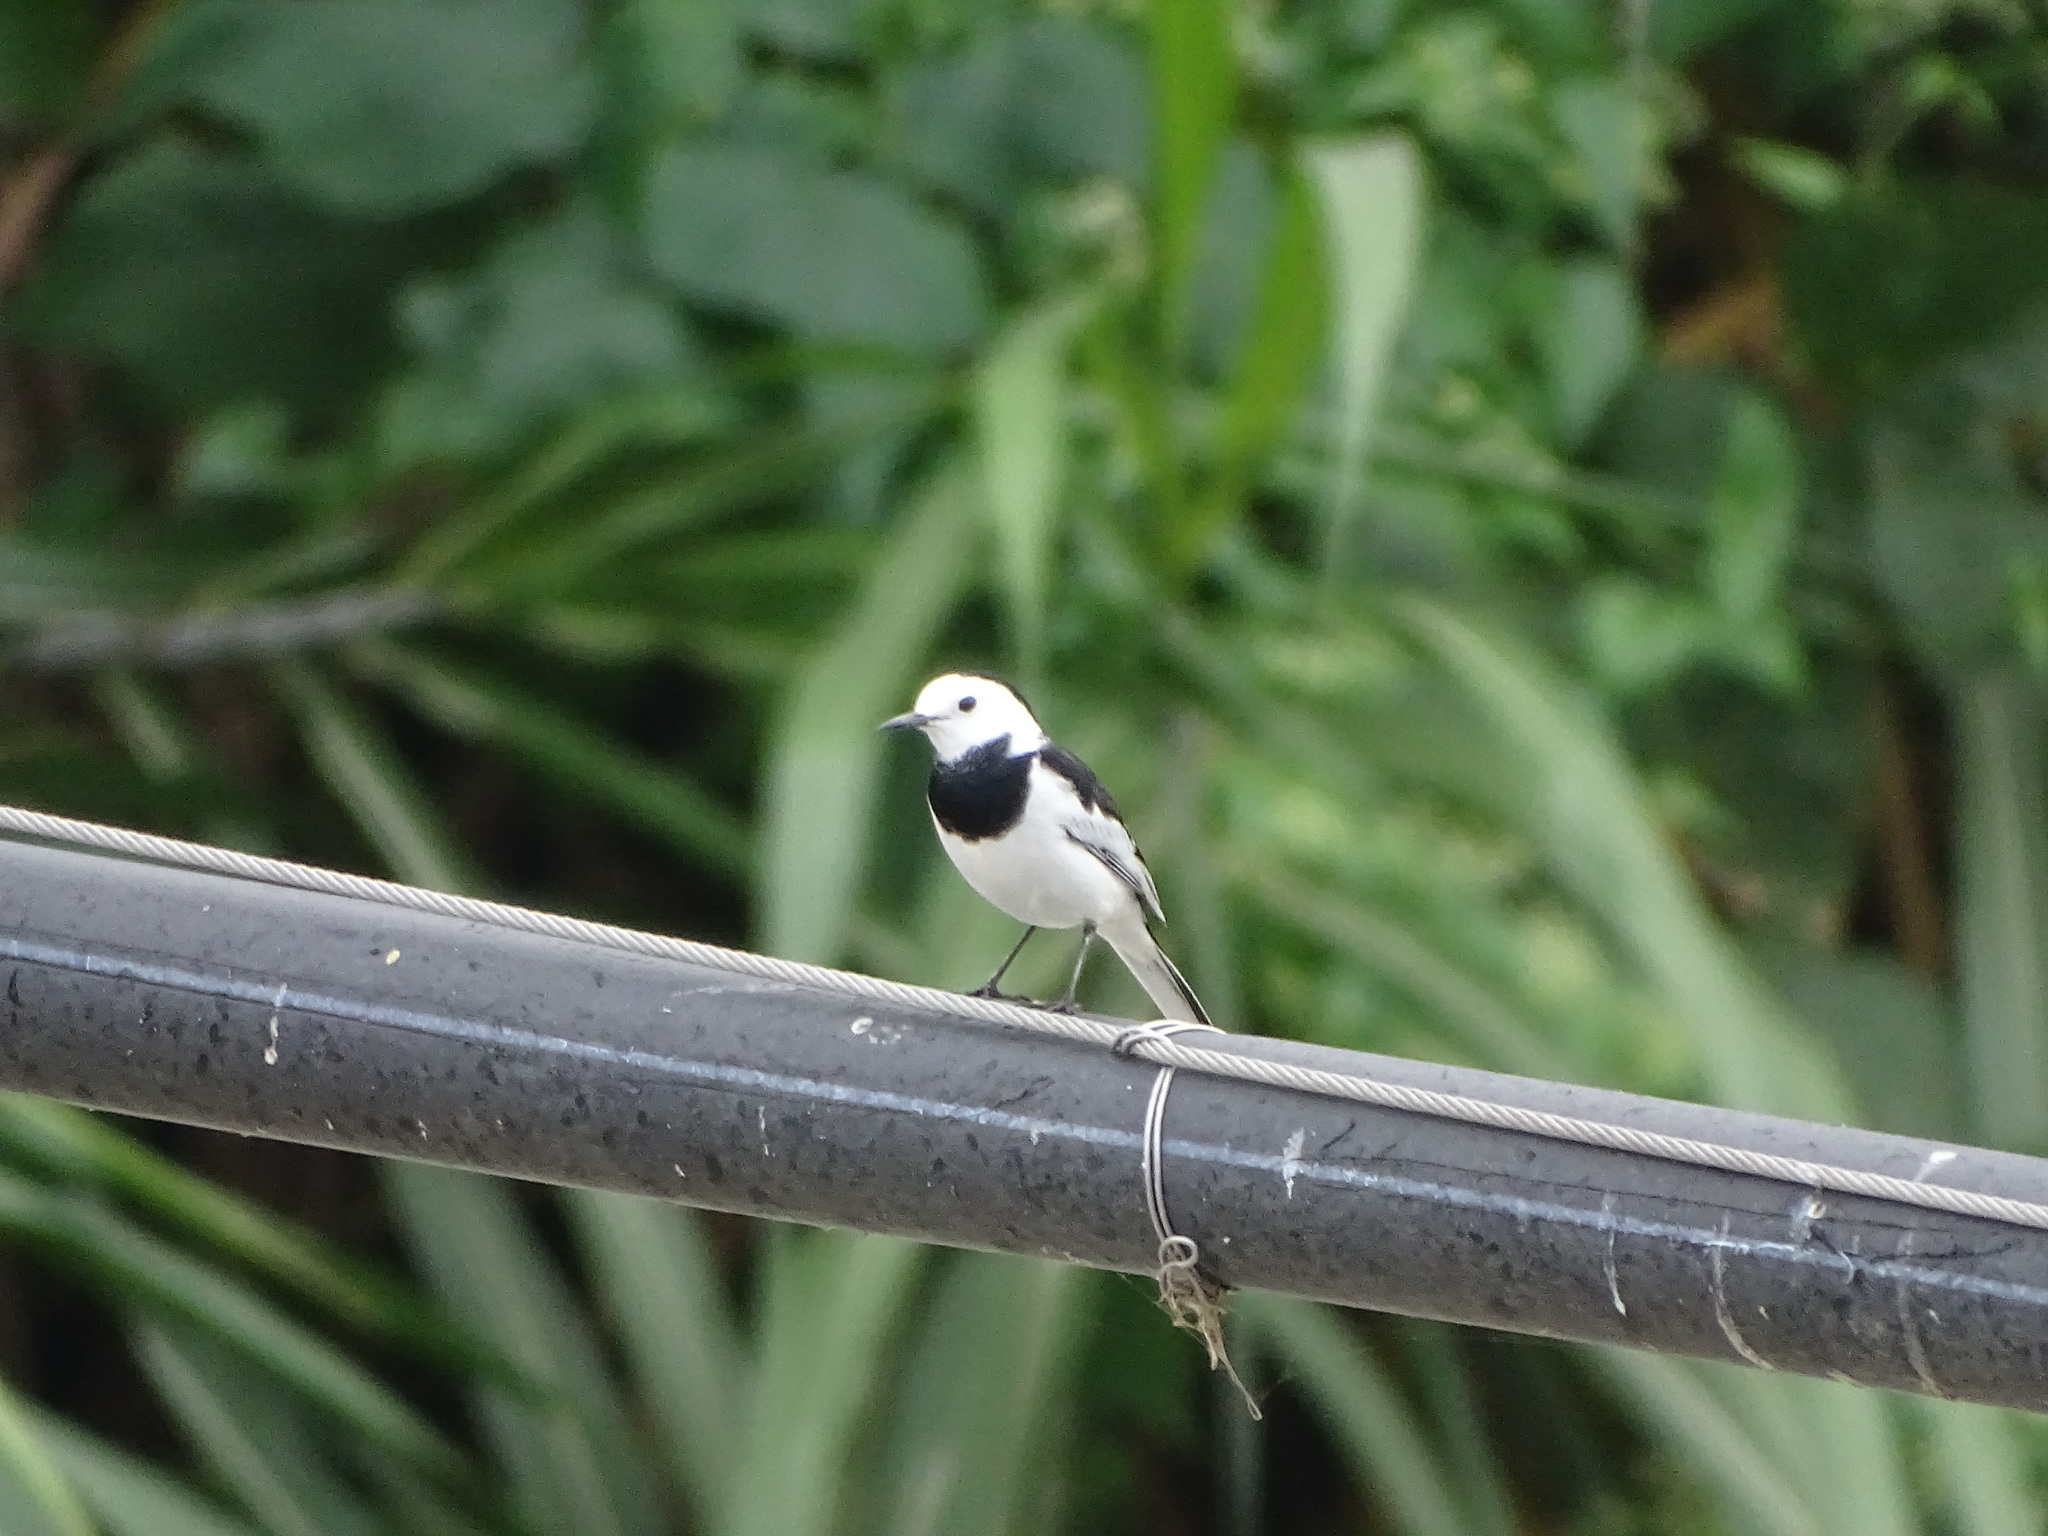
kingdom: Animalia
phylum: Chordata
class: Aves
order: Passeriformes
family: Motacillidae
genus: Motacilla
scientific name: Motacilla alba
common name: White wagtail
